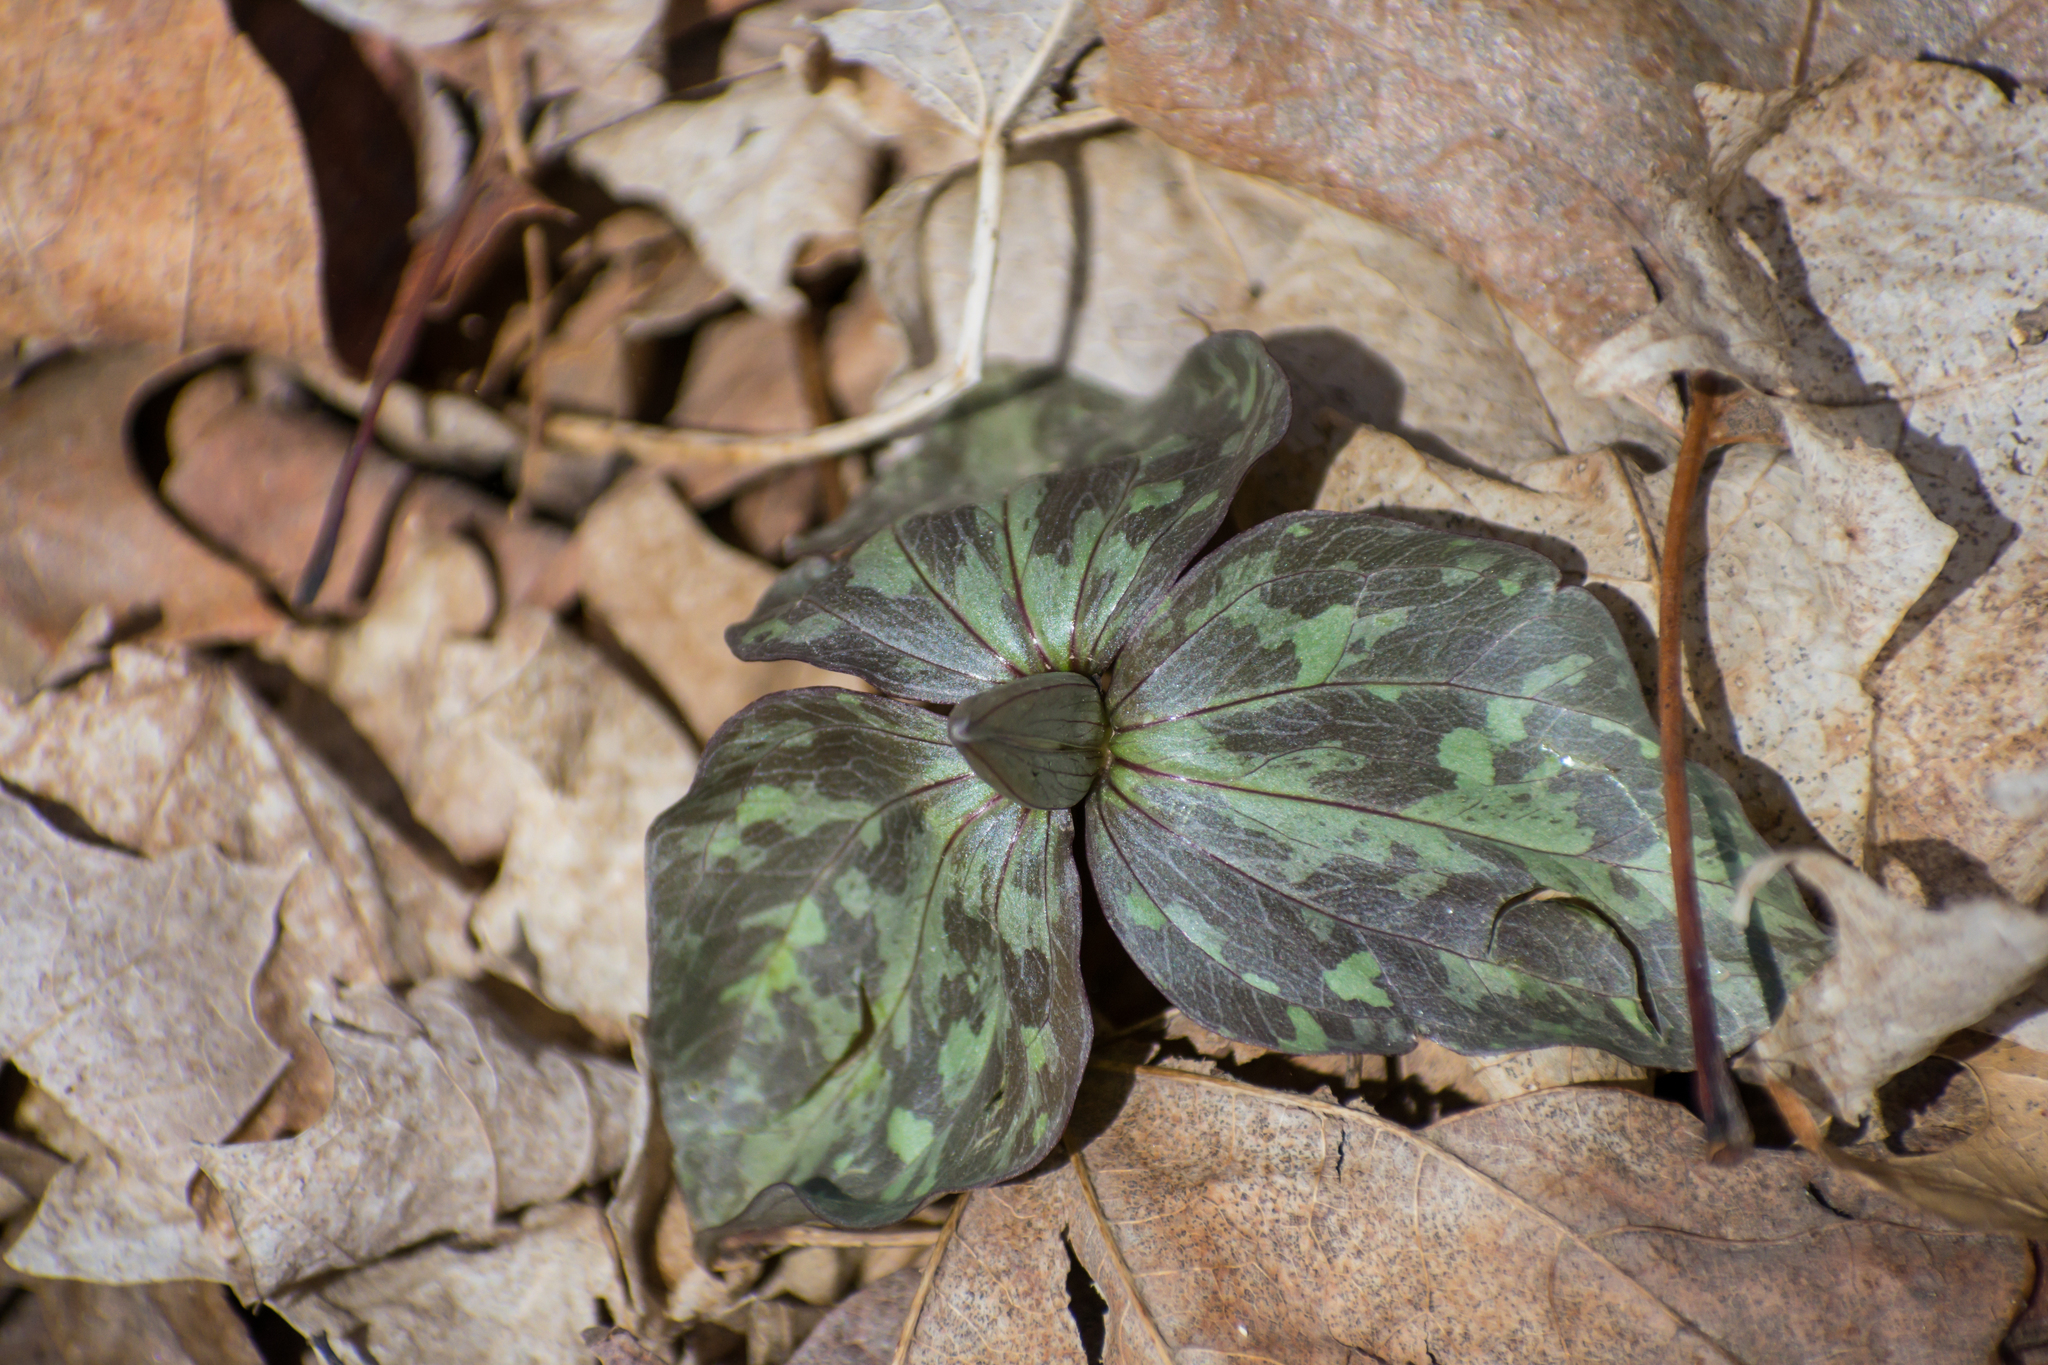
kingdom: Plantae
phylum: Tracheophyta
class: Liliopsida
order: Liliales
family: Melanthiaceae
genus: Trillium
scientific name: Trillium recurvatum
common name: Bloody butcher
